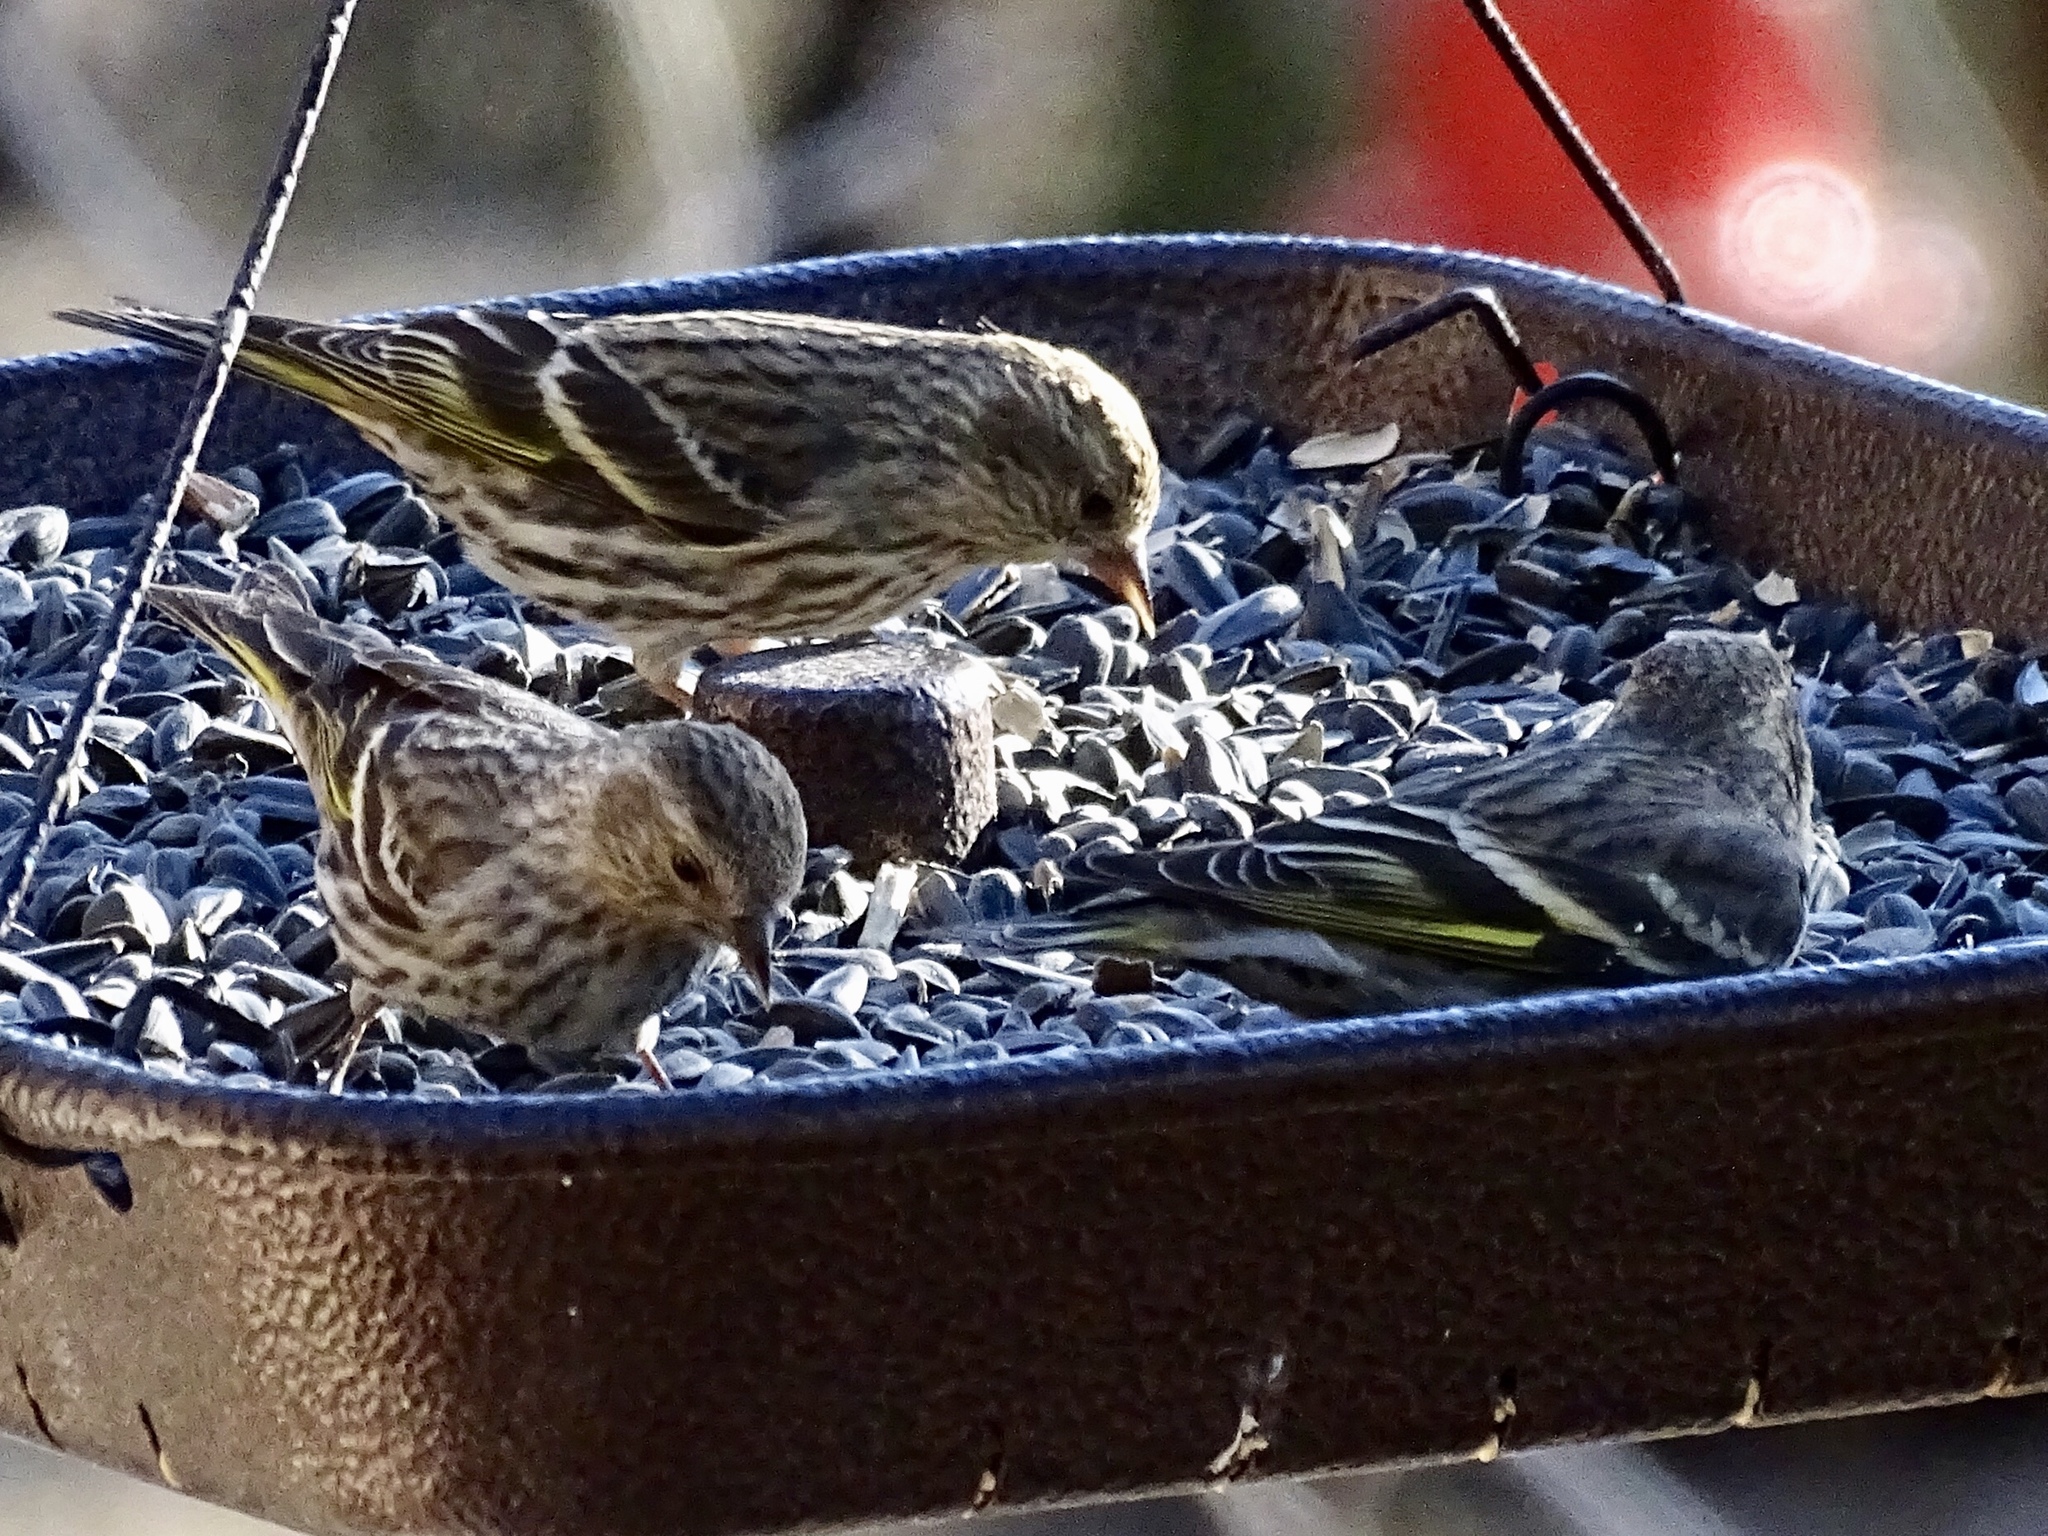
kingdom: Animalia
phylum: Chordata
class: Aves
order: Passeriformes
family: Fringillidae
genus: Spinus
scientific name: Spinus pinus
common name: Pine siskin
